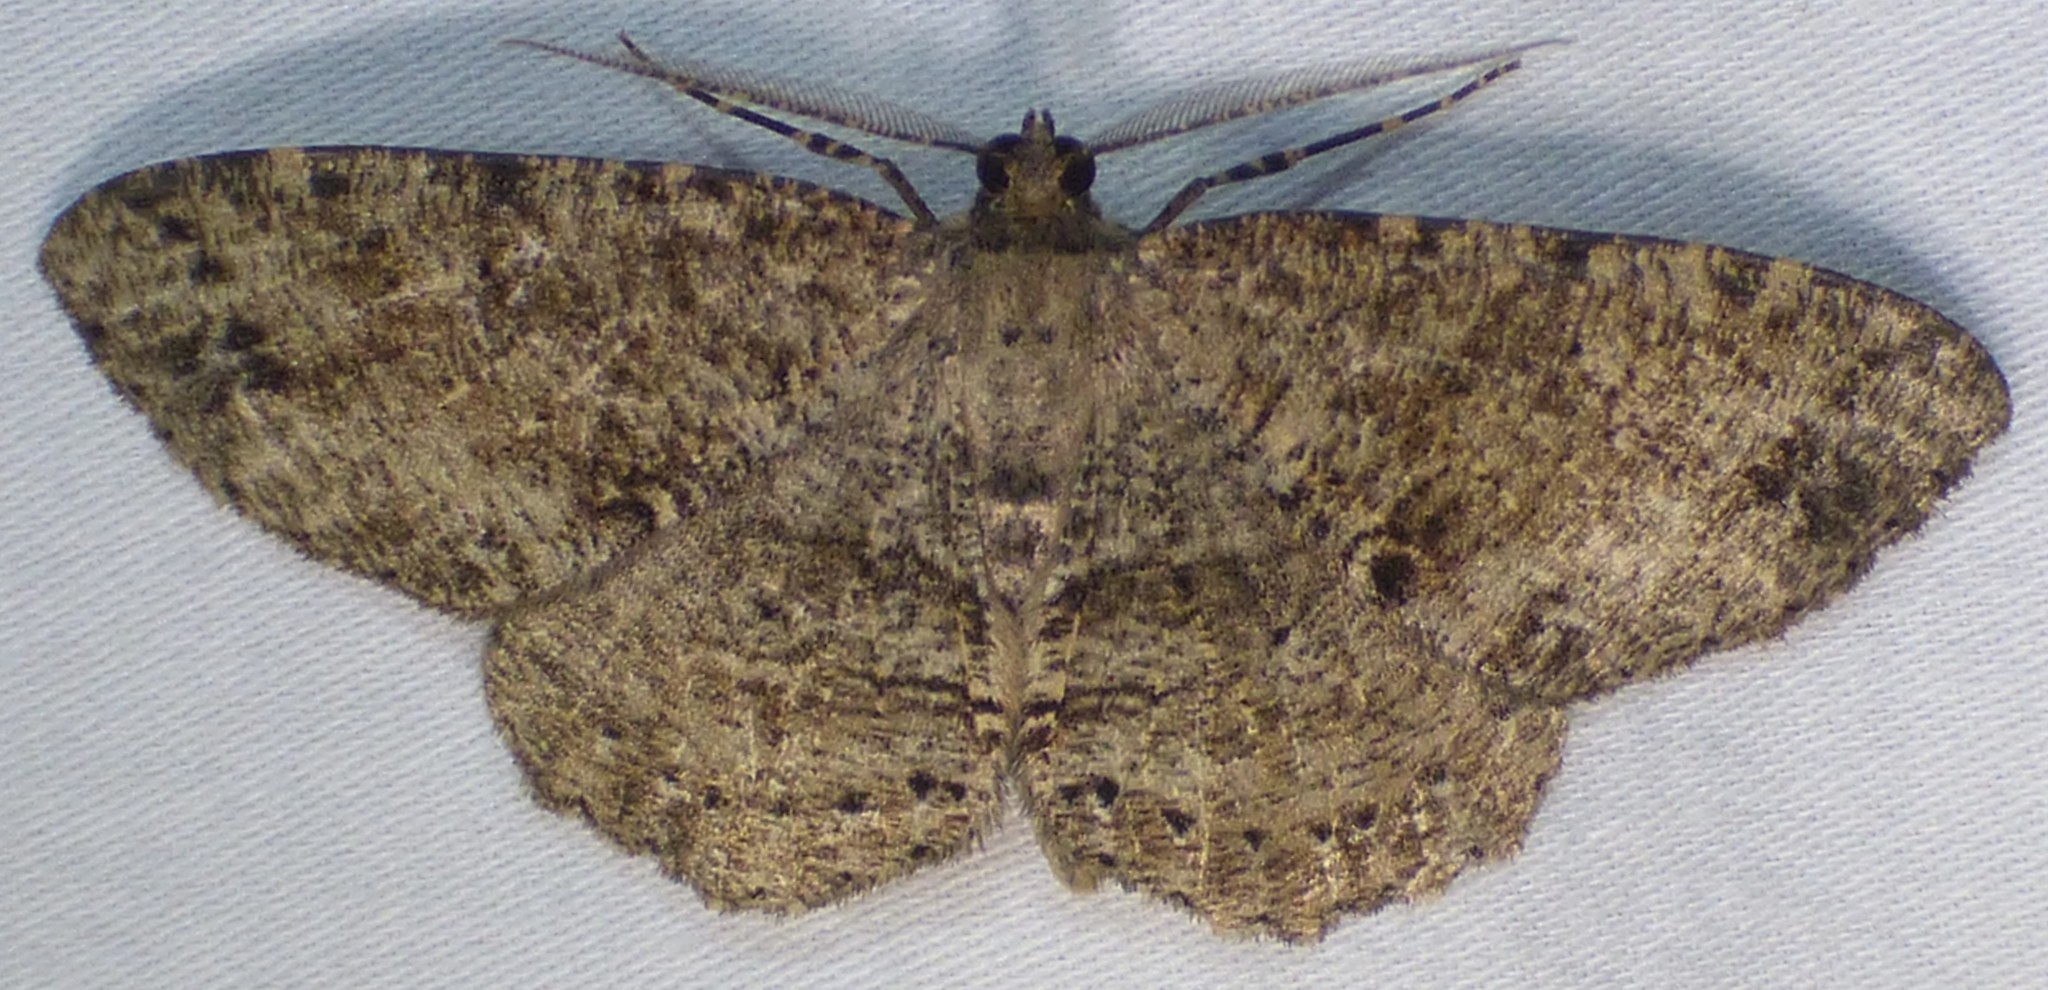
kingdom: Animalia
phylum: Arthropoda
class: Insecta
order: Lepidoptera
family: Geometridae
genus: Melanolophia
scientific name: Melanolophia canadaria
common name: Canadian melanolophia
